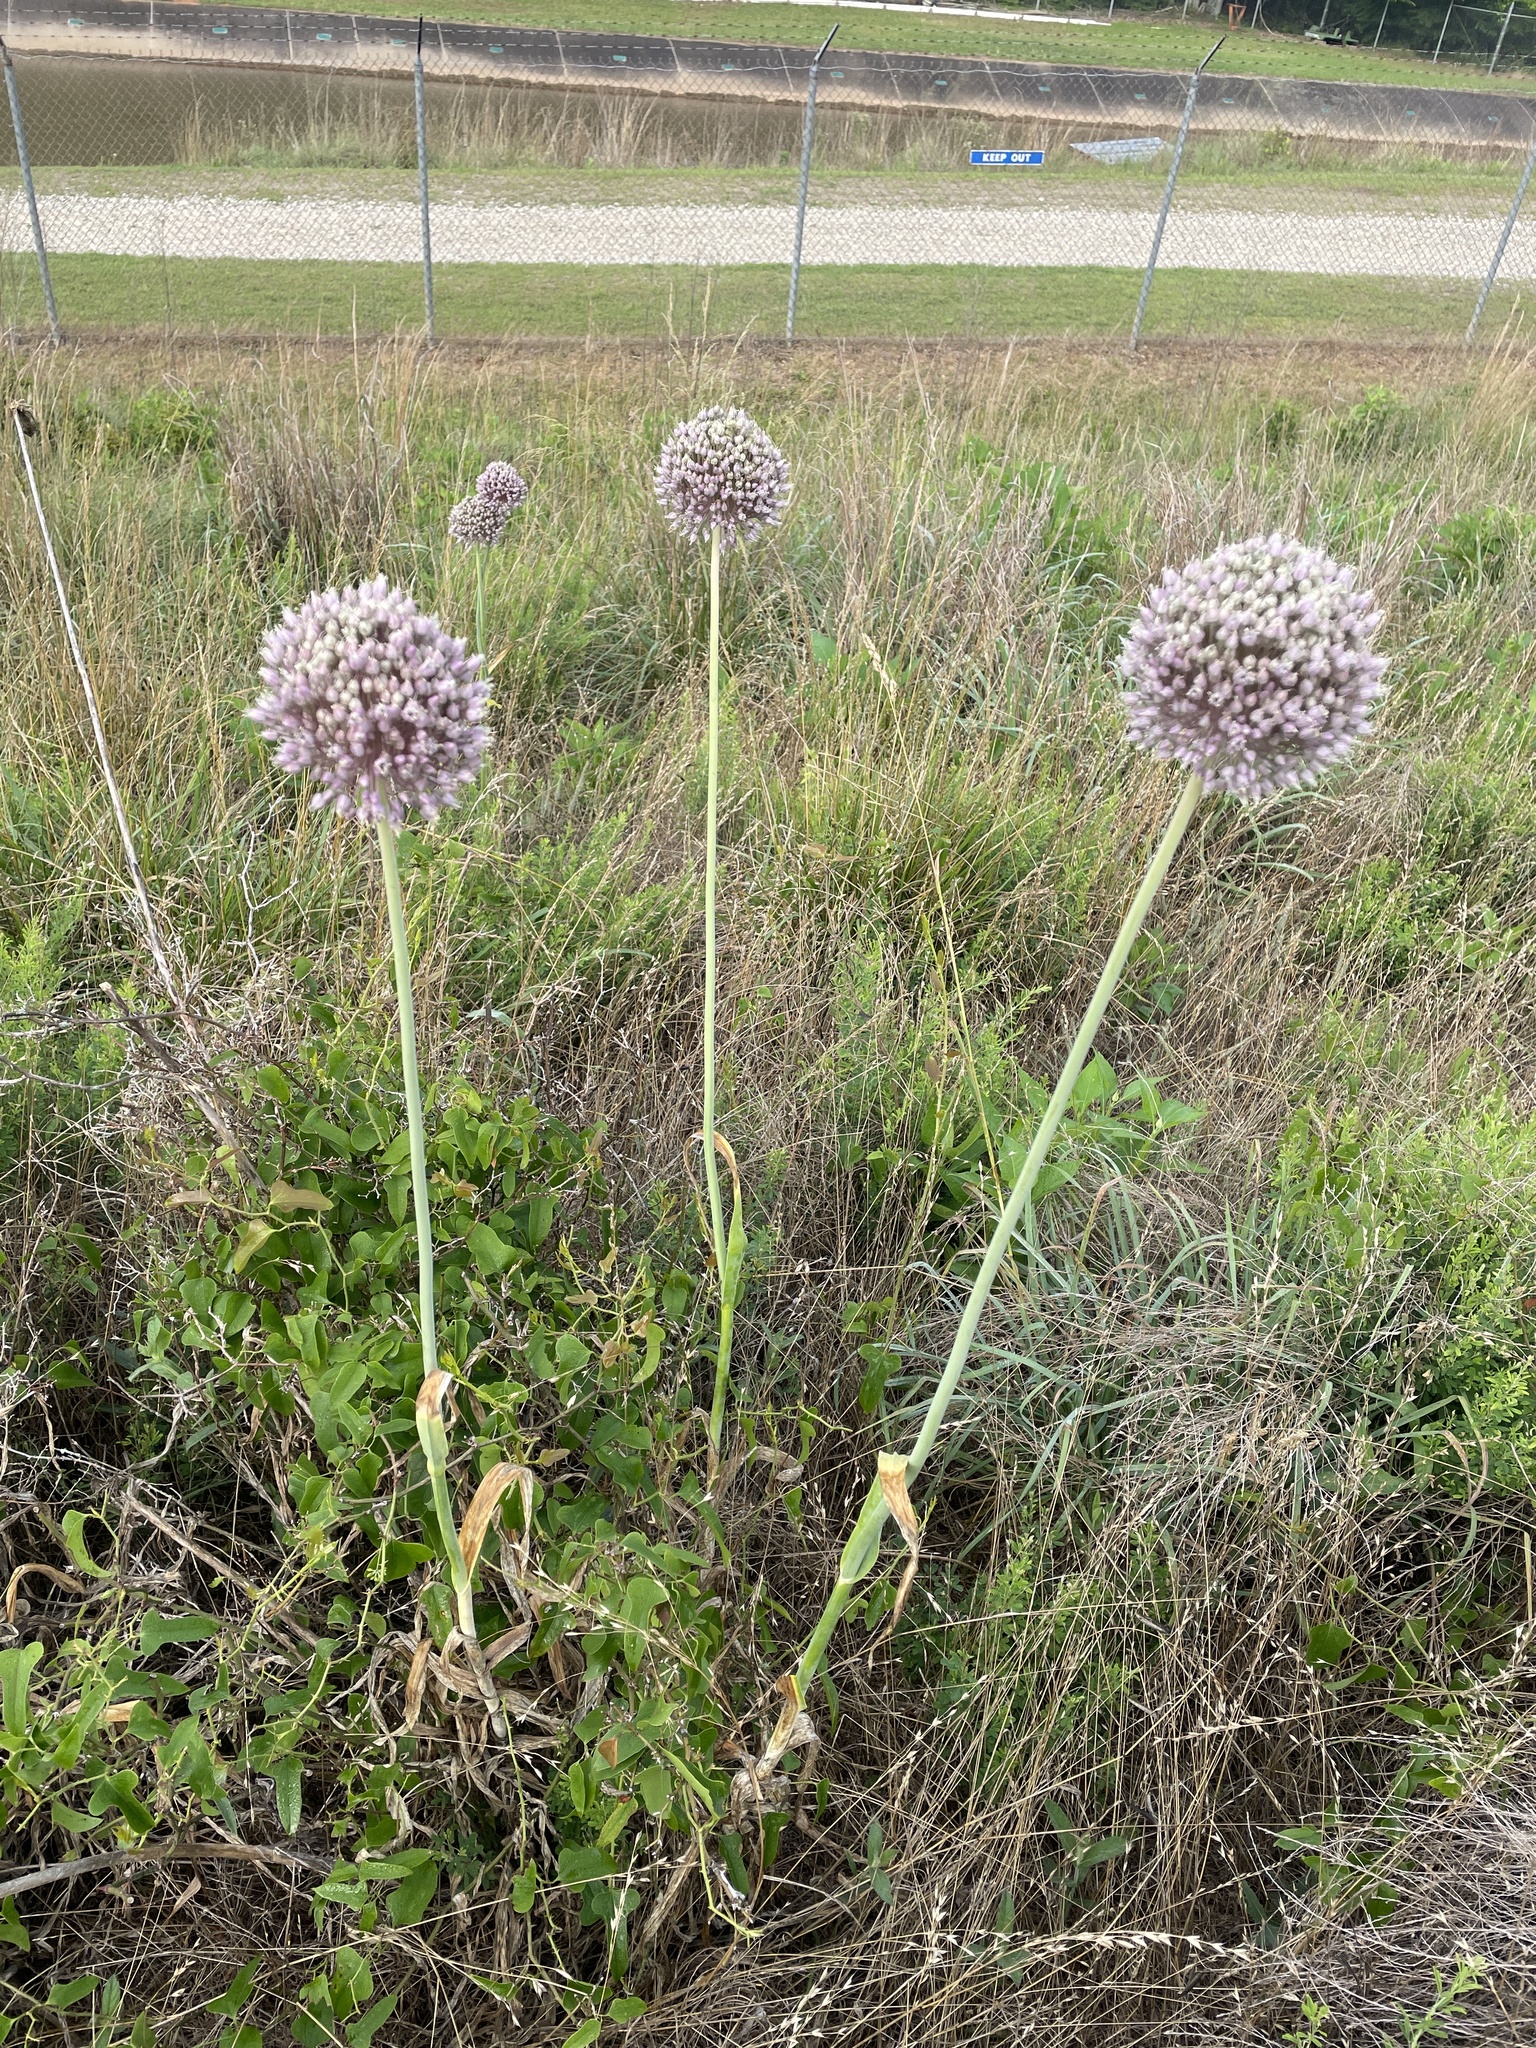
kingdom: Plantae
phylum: Tracheophyta
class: Liliopsida
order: Asparagales
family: Amaryllidaceae
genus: Allium
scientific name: Allium ampeloprasum
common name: Wild leek
